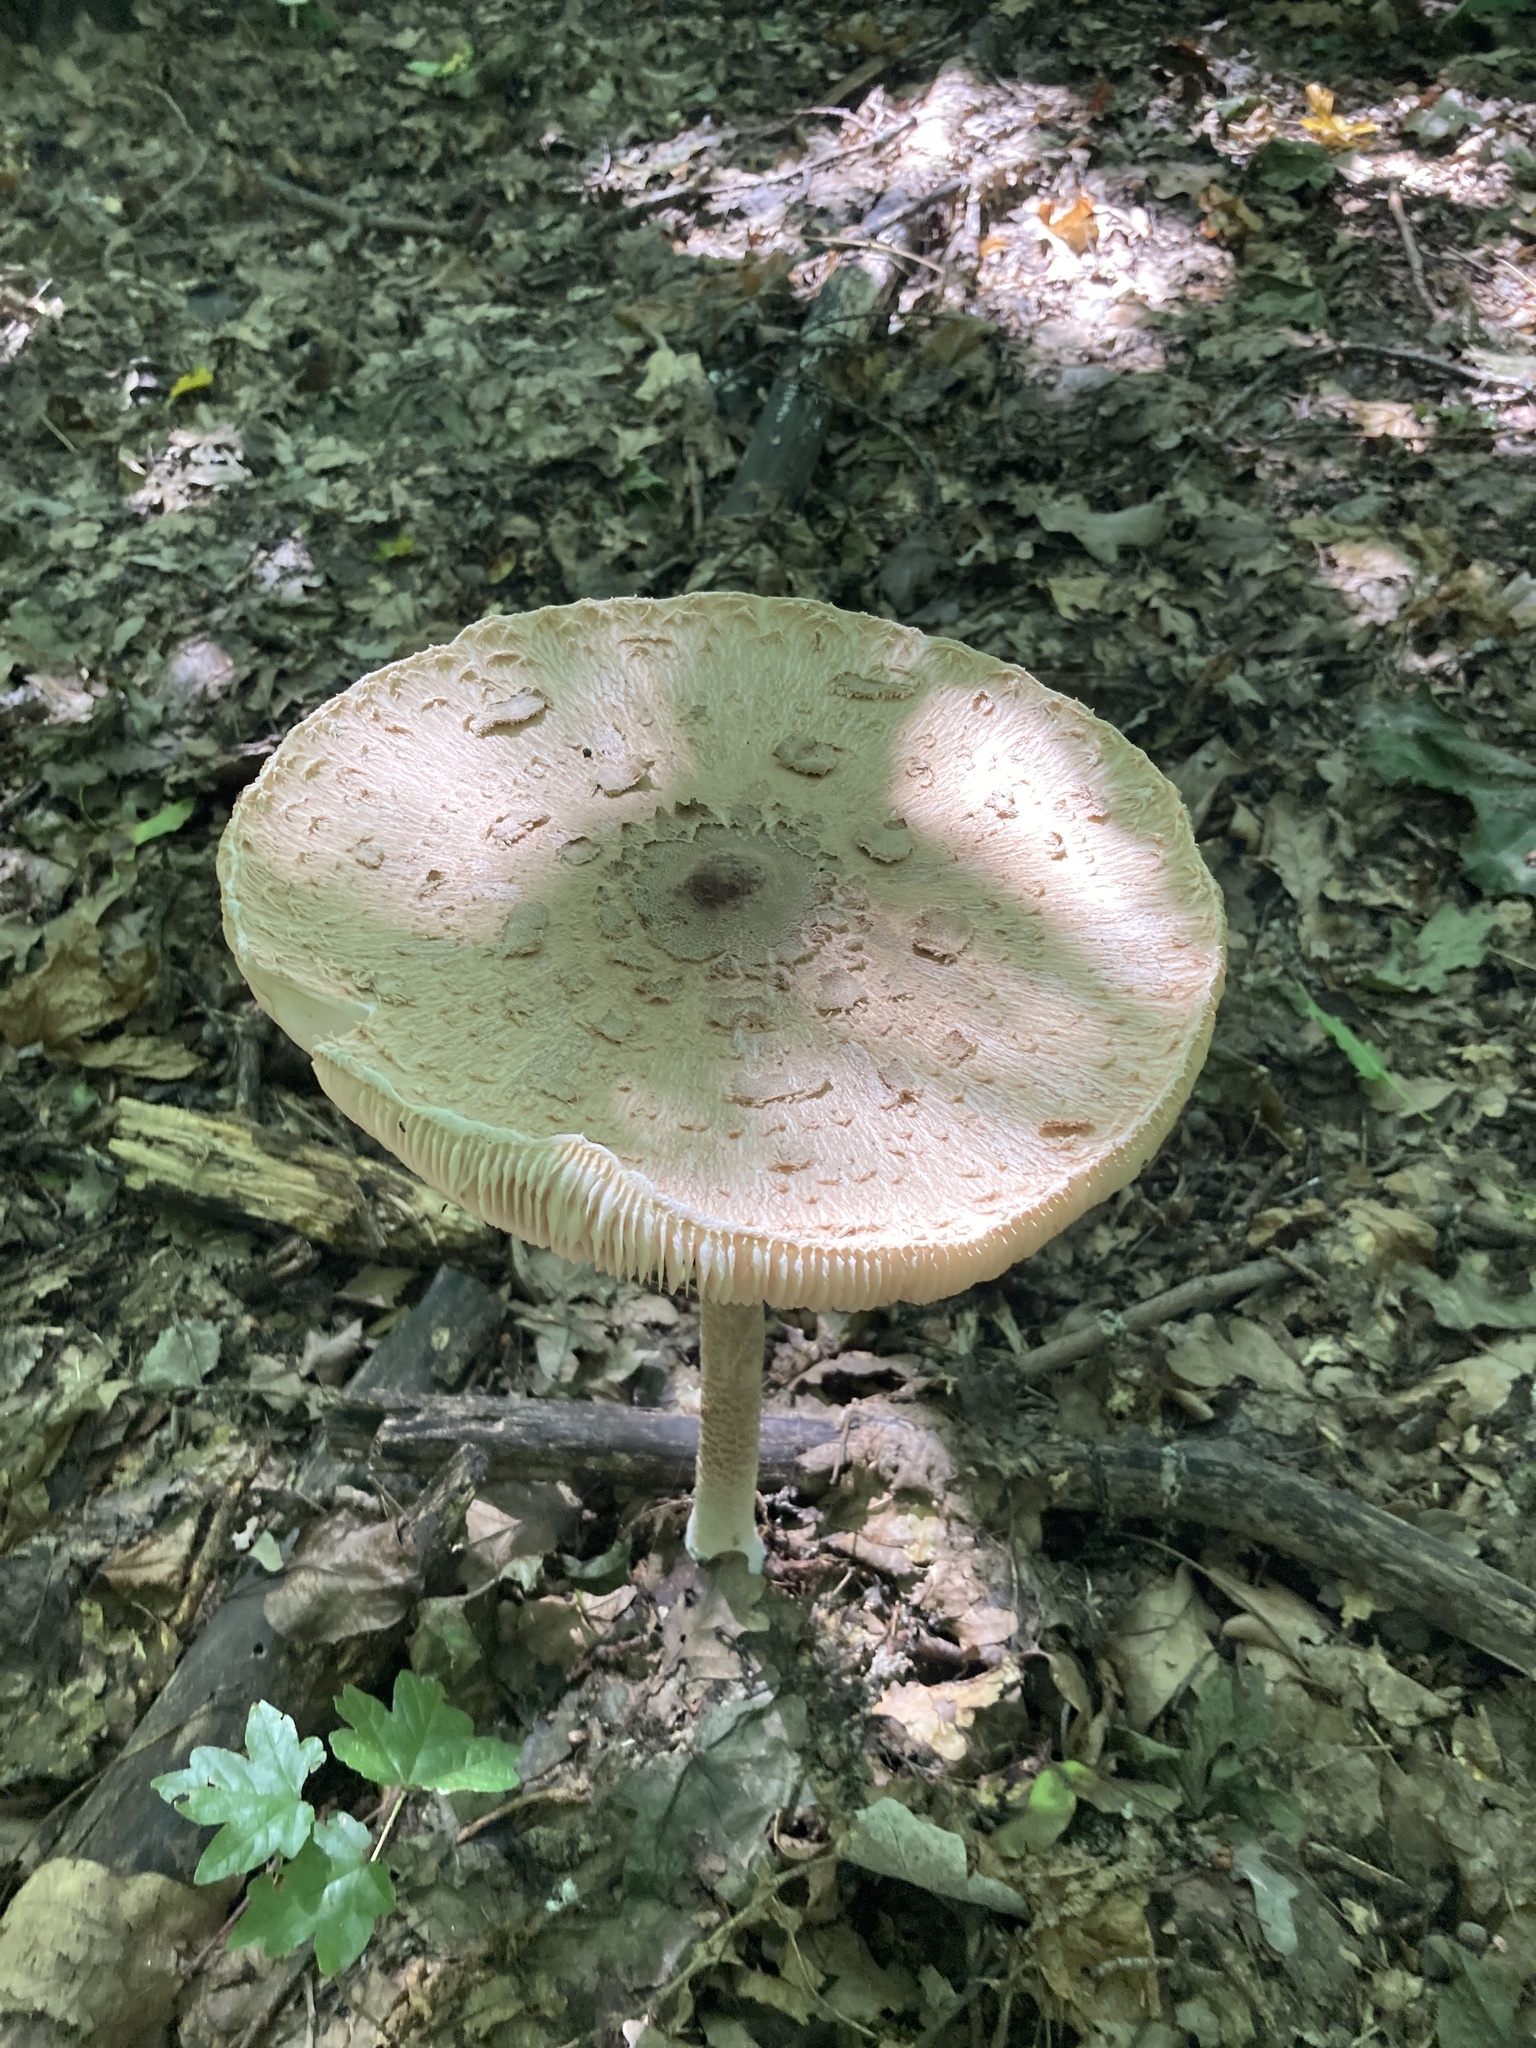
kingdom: Fungi
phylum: Basidiomycota
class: Agaricomycetes
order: Agaricales
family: Agaricaceae
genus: Macrolepiota
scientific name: Macrolepiota procera
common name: Parasol
